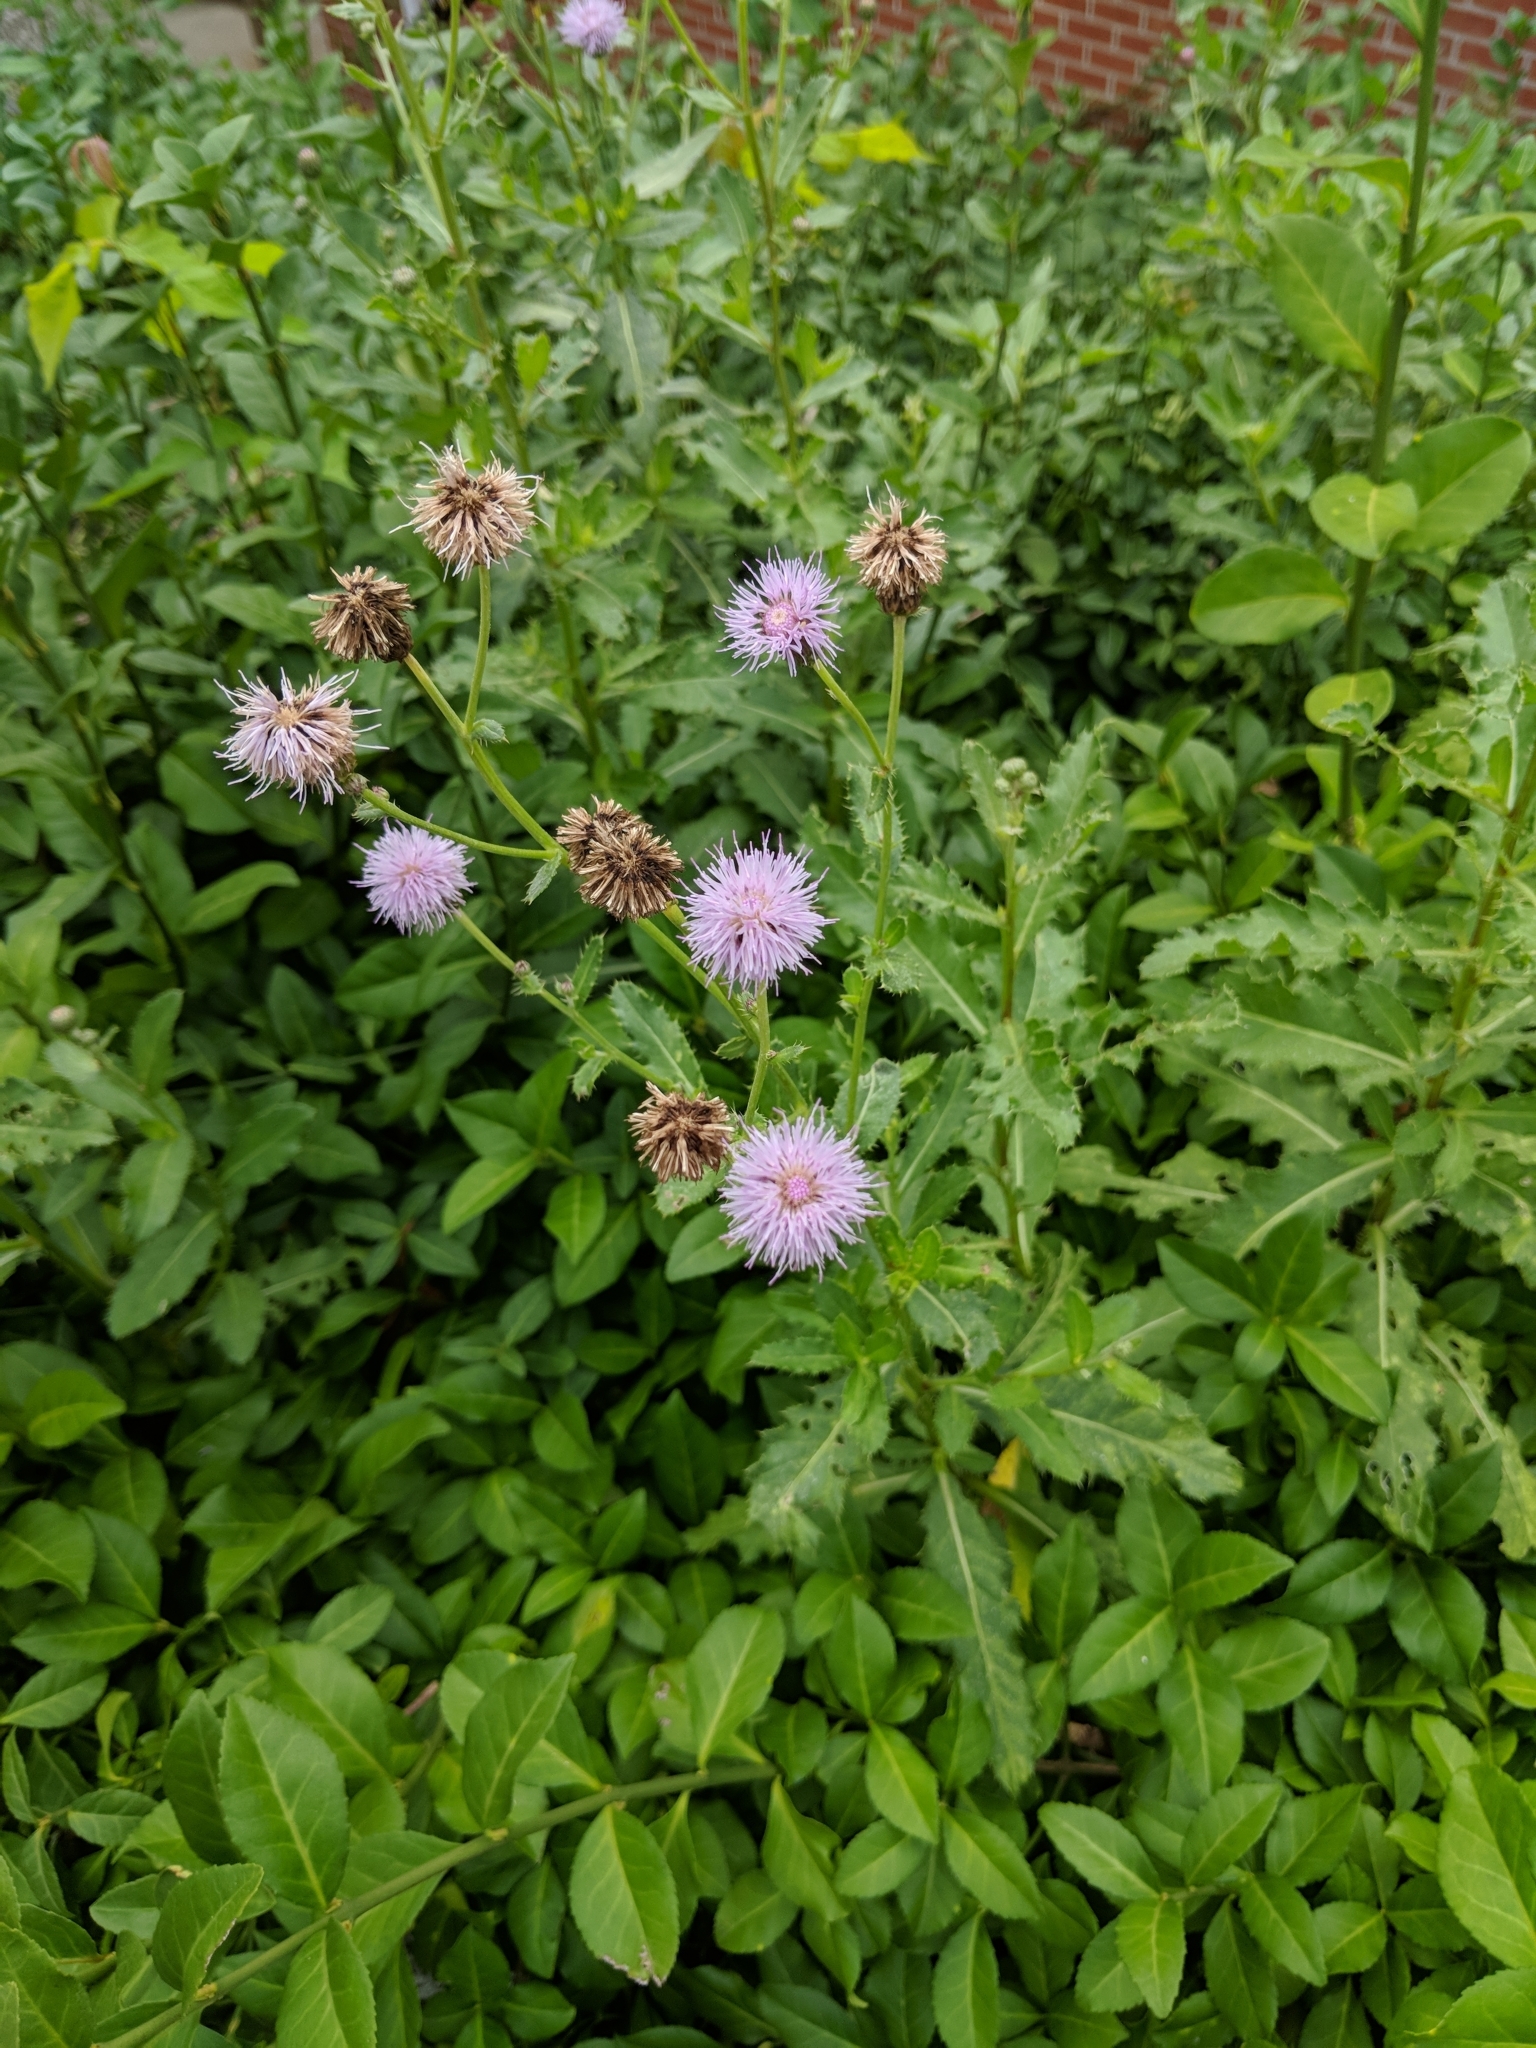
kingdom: Plantae
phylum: Tracheophyta
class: Magnoliopsida
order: Asterales
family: Asteraceae
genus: Cirsium
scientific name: Cirsium arvense
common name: Creeping thistle
